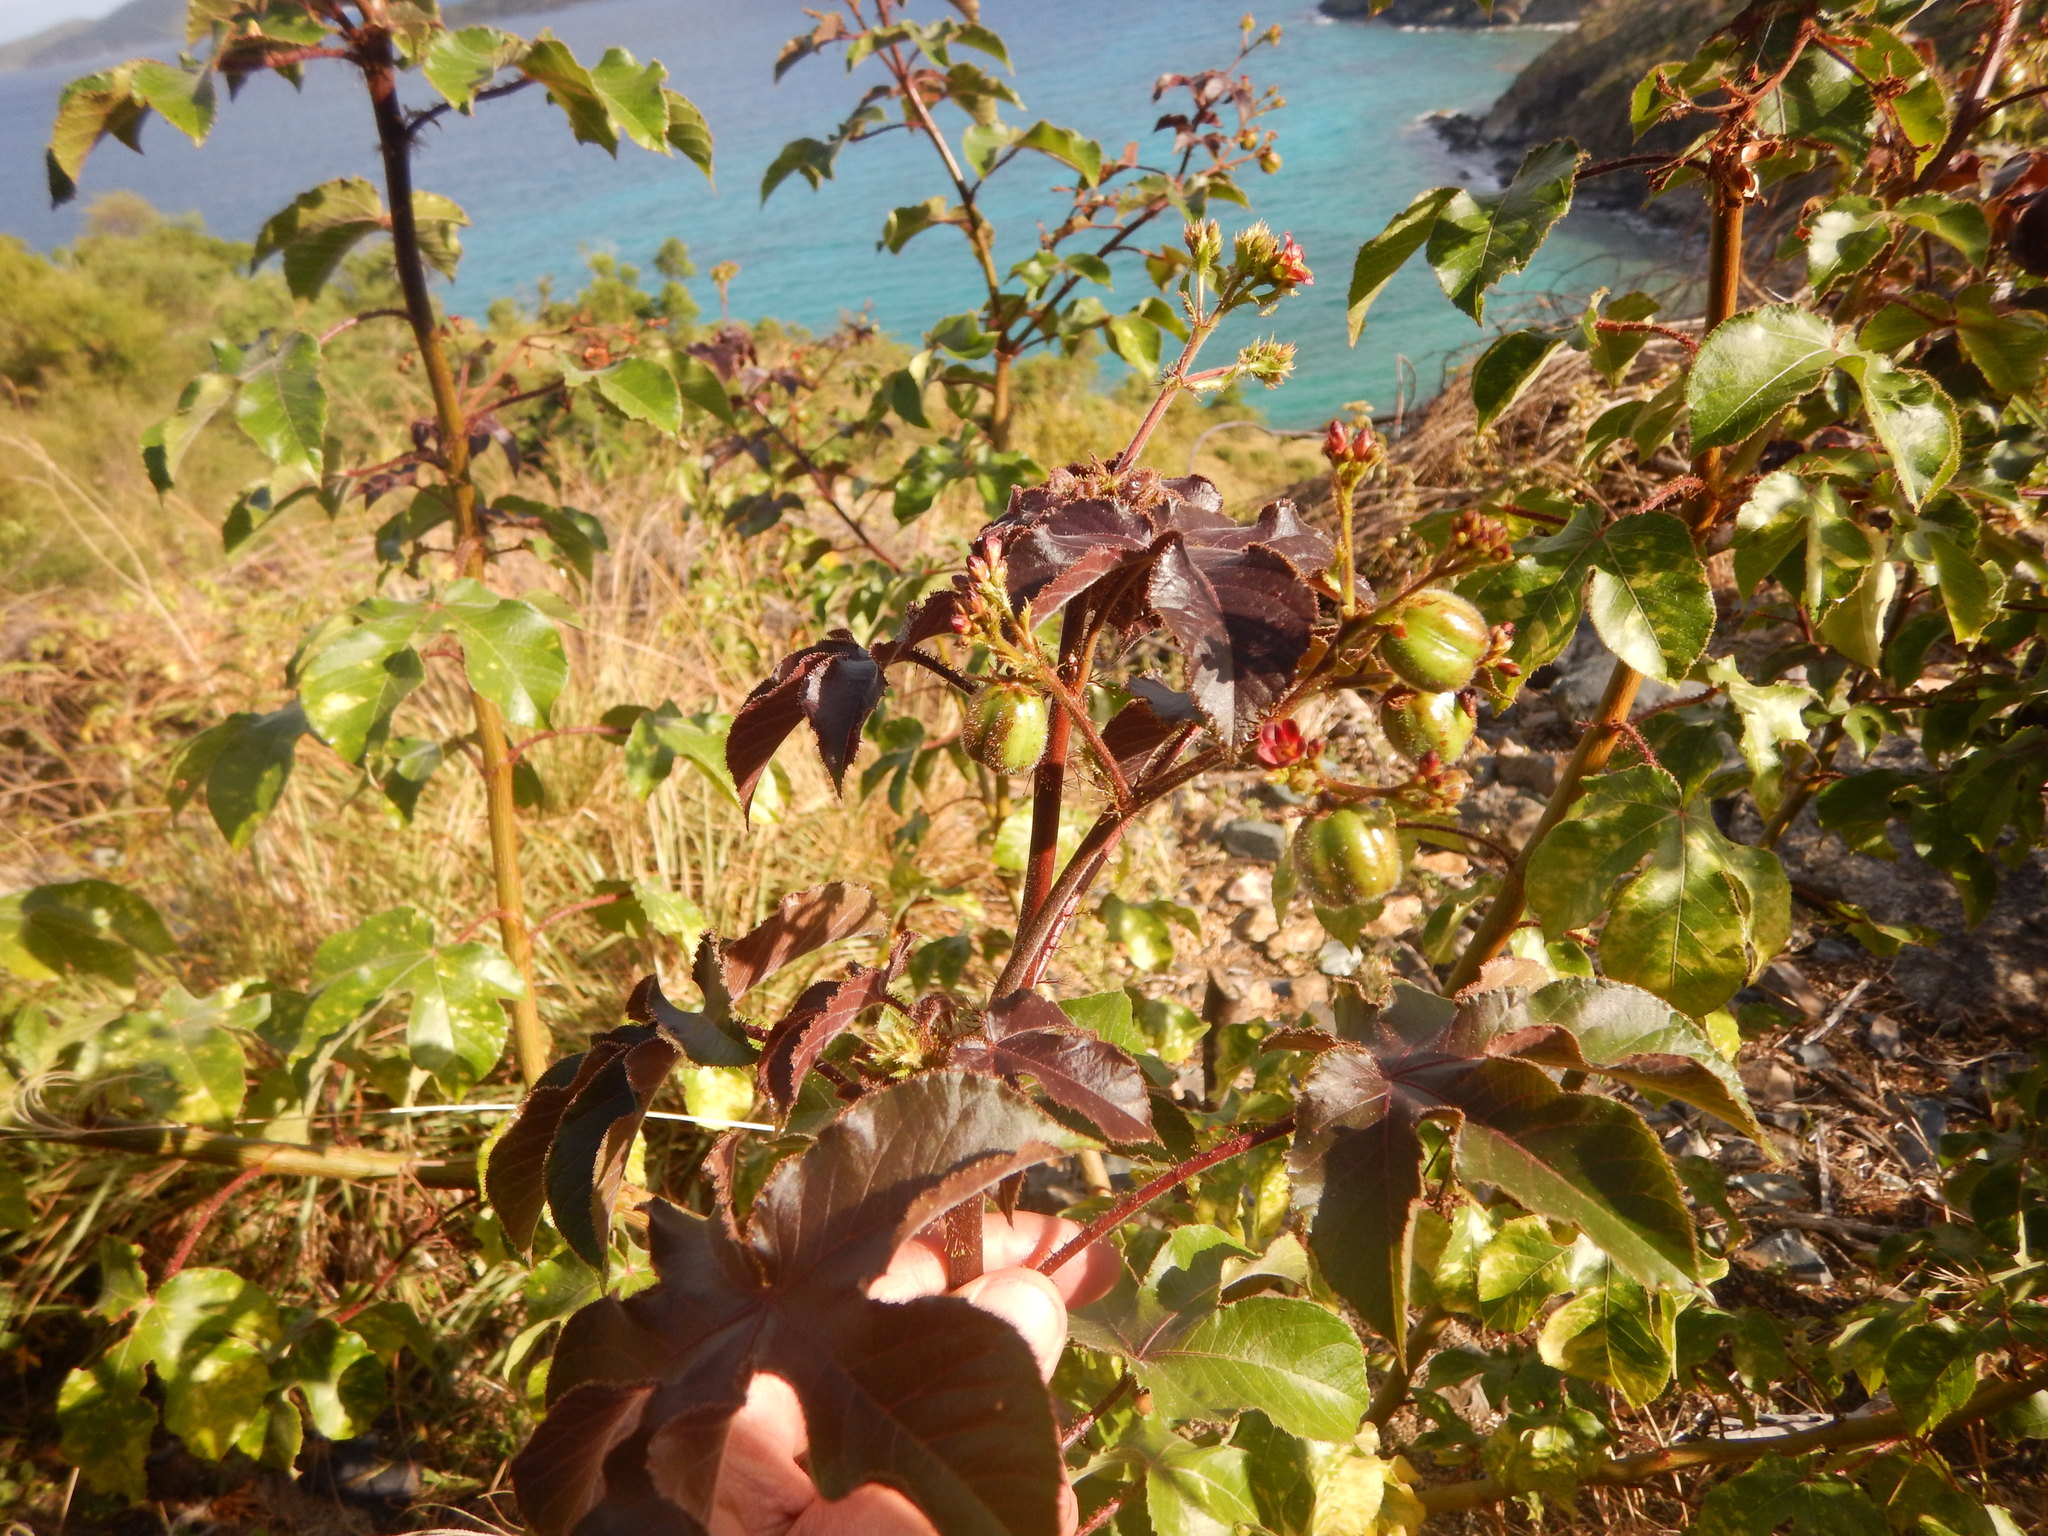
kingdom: Plantae
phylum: Tracheophyta
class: Magnoliopsida
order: Malpighiales
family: Euphorbiaceae
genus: Jatropha
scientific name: Jatropha gossypiifolia
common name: Bellyache bush
